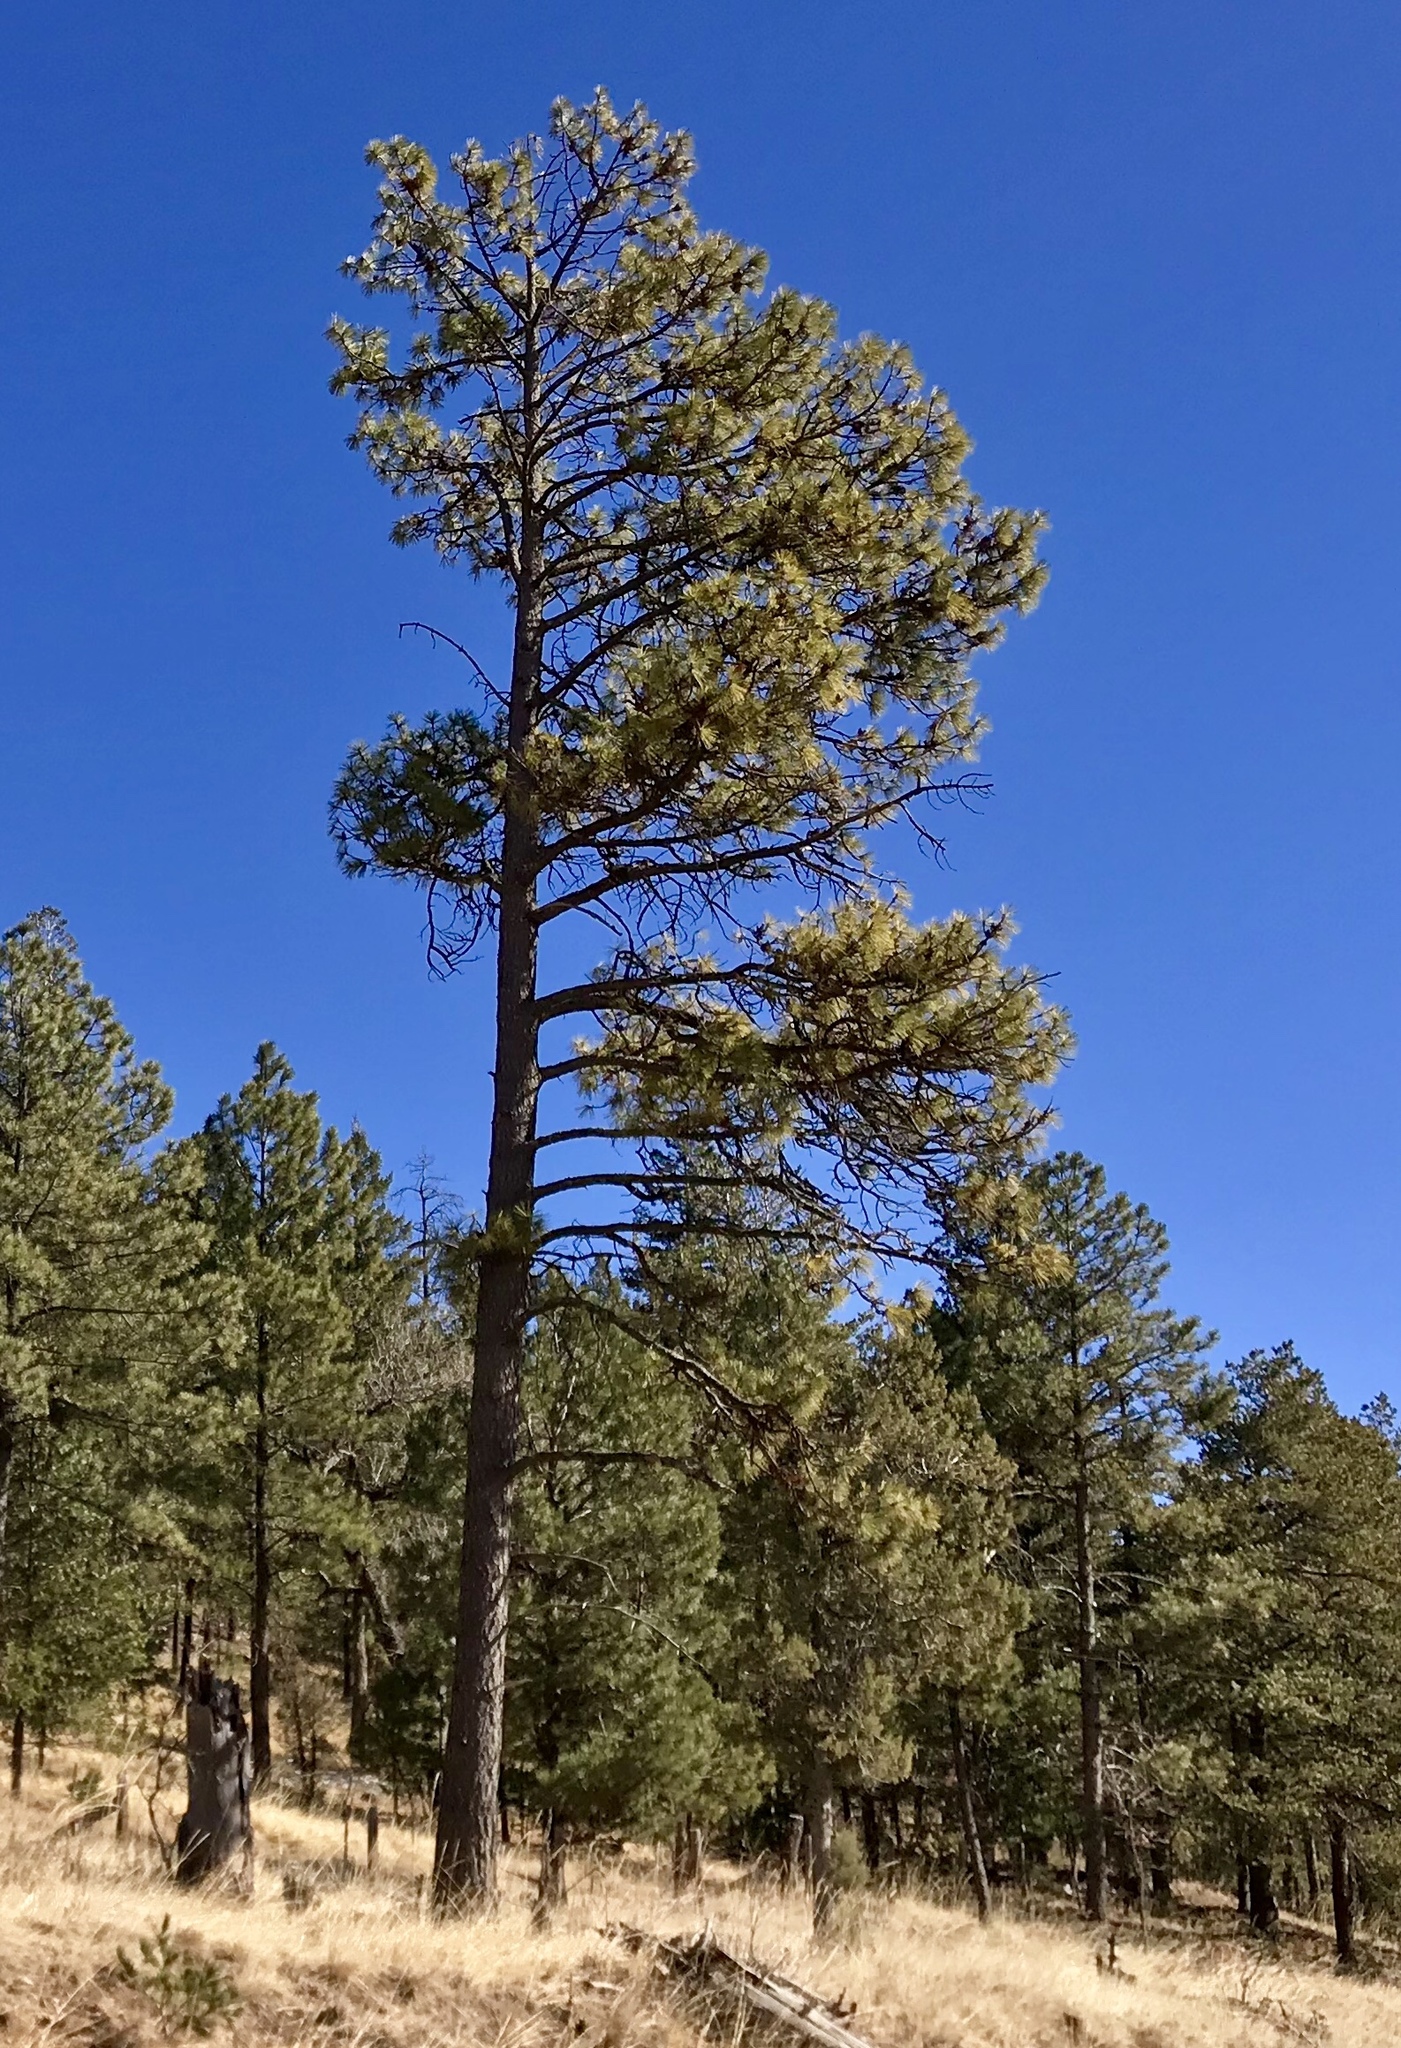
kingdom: Plantae
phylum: Tracheophyta
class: Pinopsida
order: Pinales
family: Pinaceae
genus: Pinus
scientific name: Pinus ponderosa
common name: Western yellow-pine
